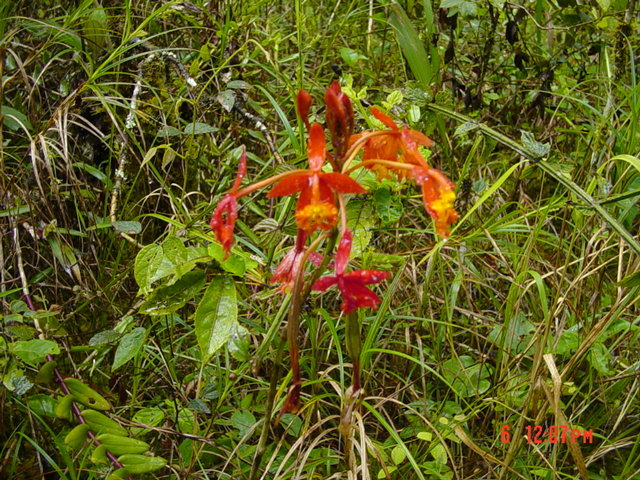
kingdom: Plantae
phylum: Tracheophyta
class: Liliopsida
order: Asparagales
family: Orchidaceae
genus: Epidendrum
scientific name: Epidendrum radicans
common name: Fire star orchid
